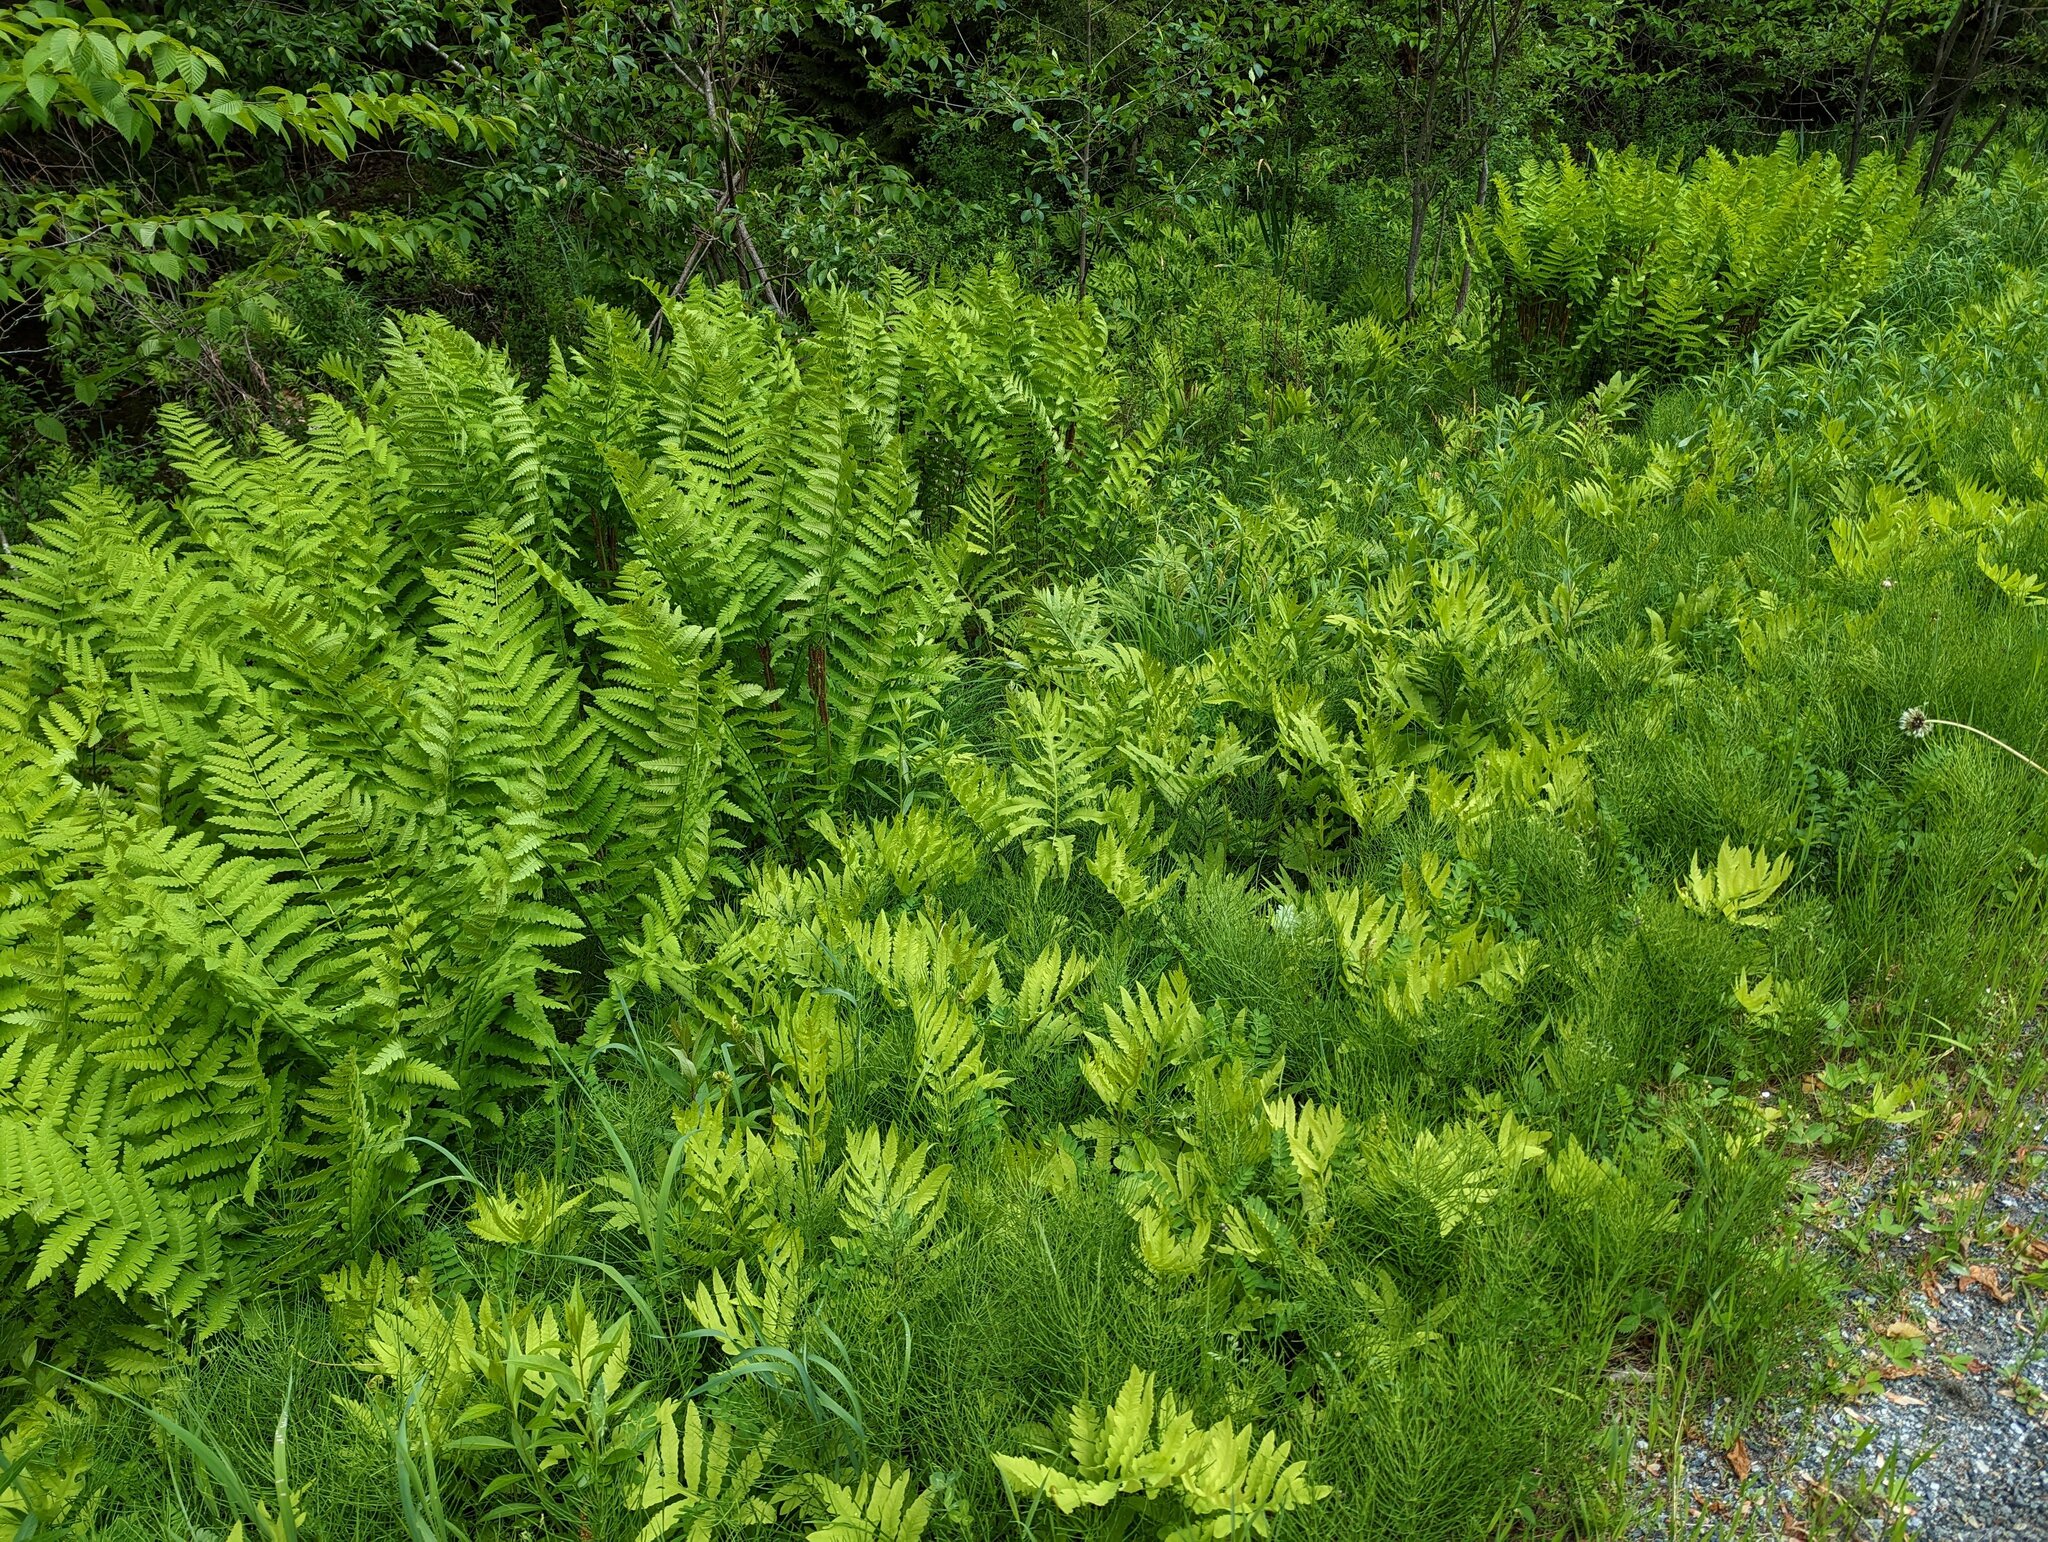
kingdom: Plantae
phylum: Tracheophyta
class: Polypodiopsida
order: Polypodiales
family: Onocleaceae
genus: Onoclea
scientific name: Onoclea sensibilis
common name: Sensitive fern
